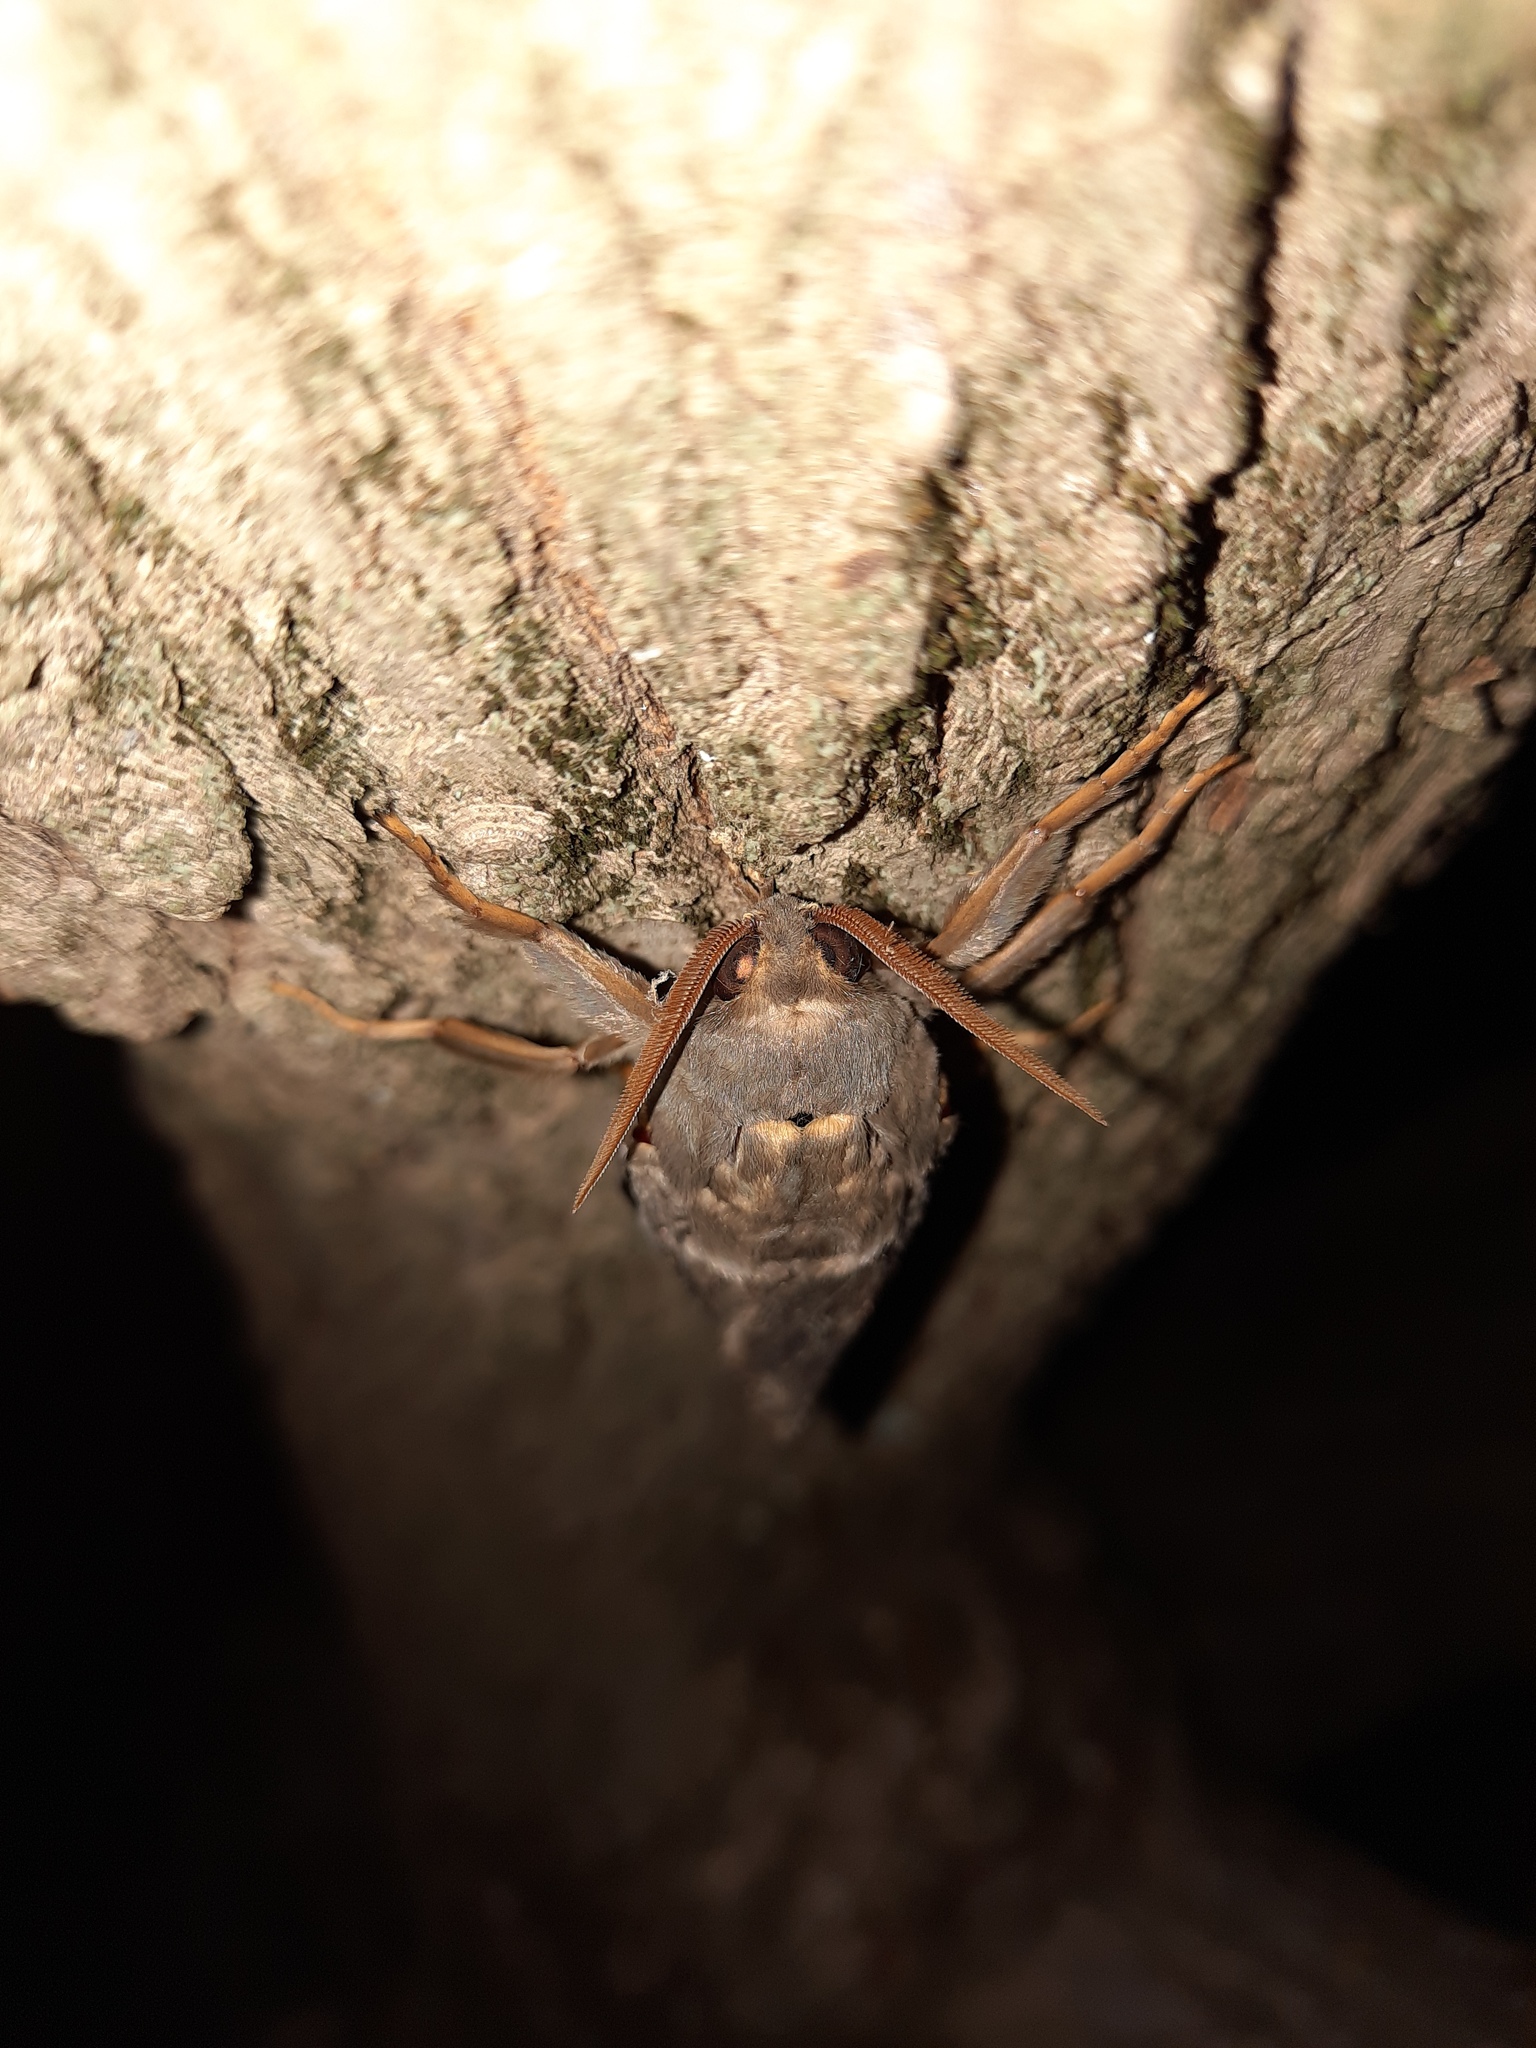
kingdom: Animalia
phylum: Arthropoda
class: Insecta
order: Lepidoptera
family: Hepialidae
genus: Abantiades
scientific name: Abantiades atripalpis
